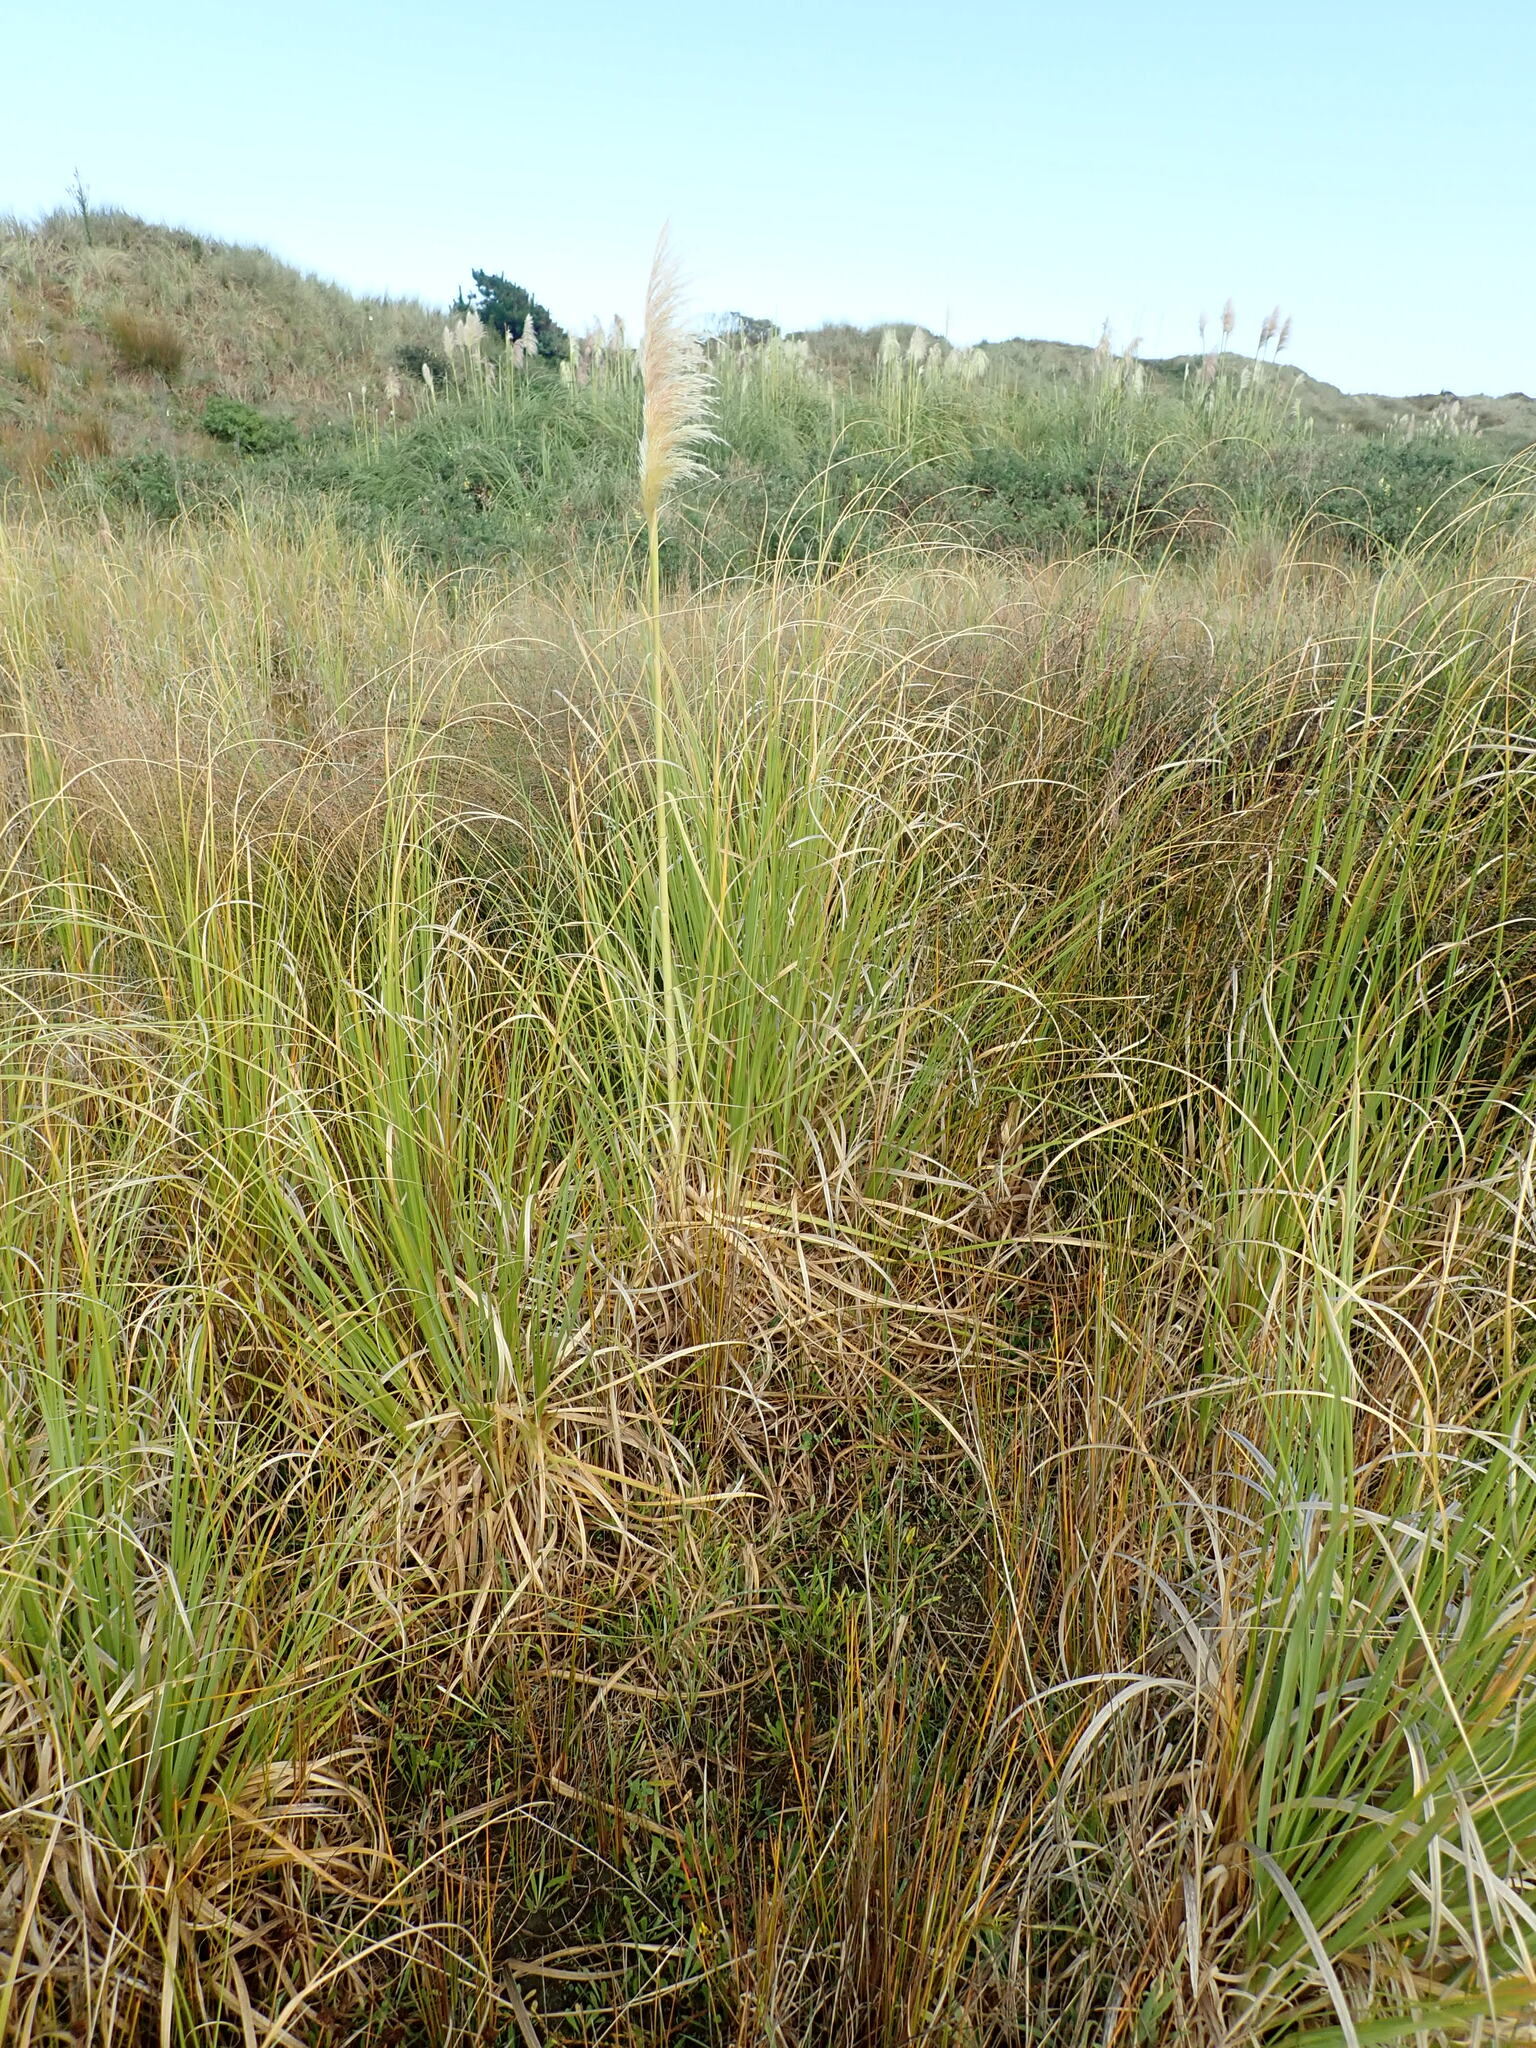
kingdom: Plantae
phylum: Tracheophyta
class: Liliopsida
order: Poales
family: Poaceae
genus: Cortaderia
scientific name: Cortaderia selloana
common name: Uruguayan pampas grass
